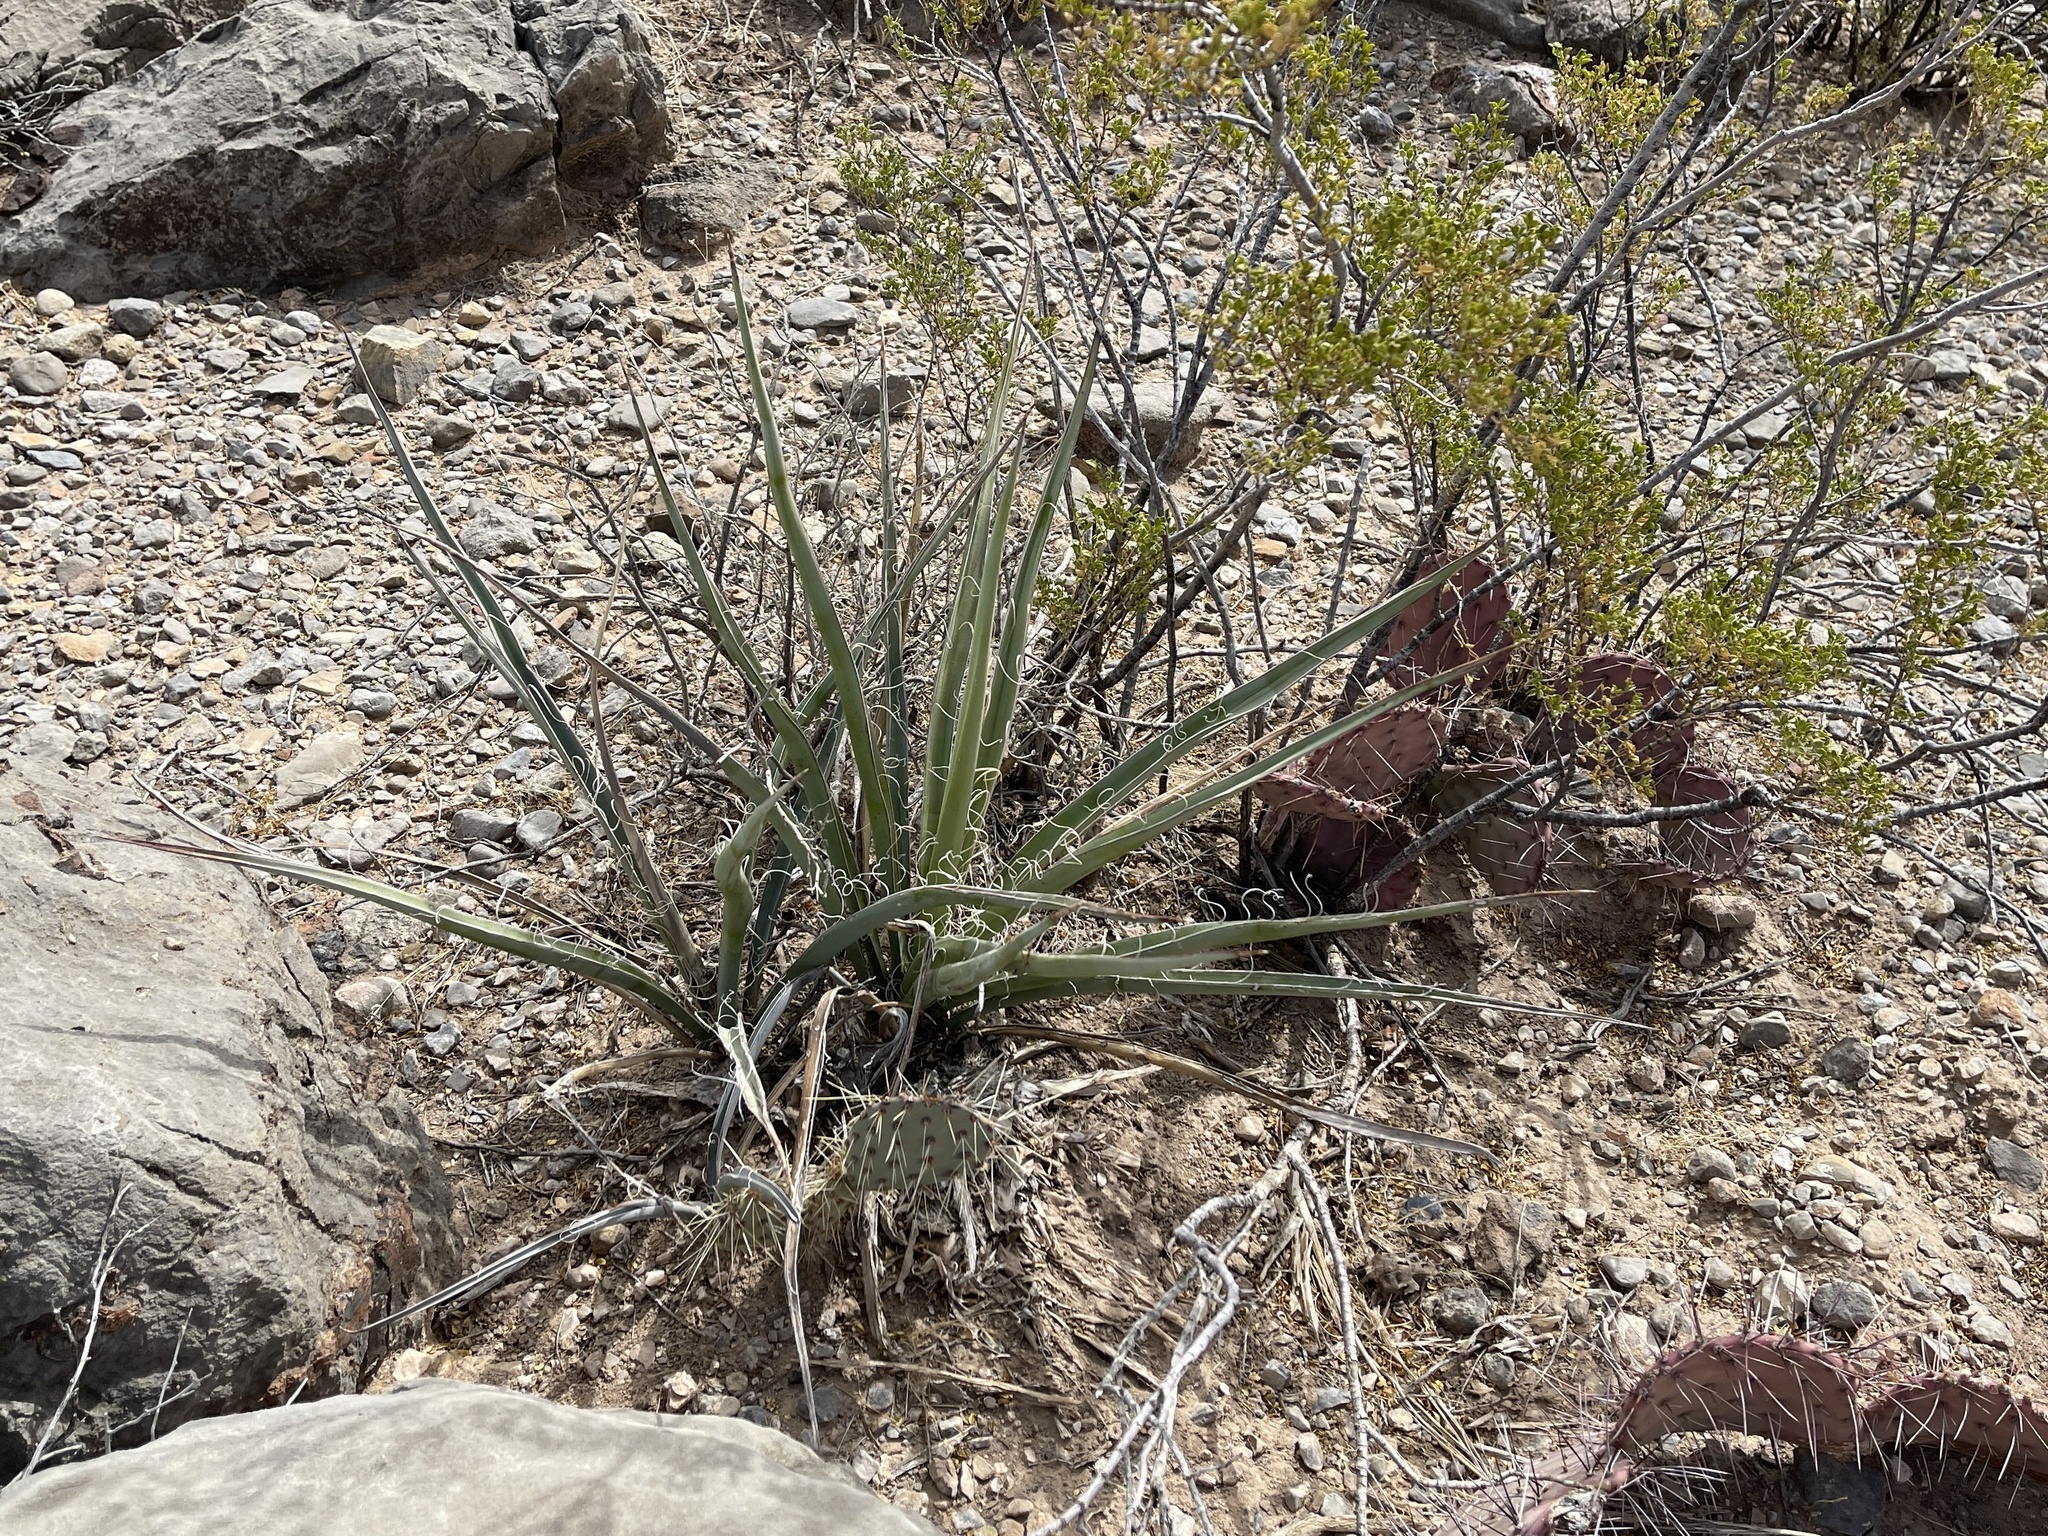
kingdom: Plantae
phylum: Tracheophyta
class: Liliopsida
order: Asparagales
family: Asparagaceae
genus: Yucca
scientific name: Yucca baccata
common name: Banana yucca
